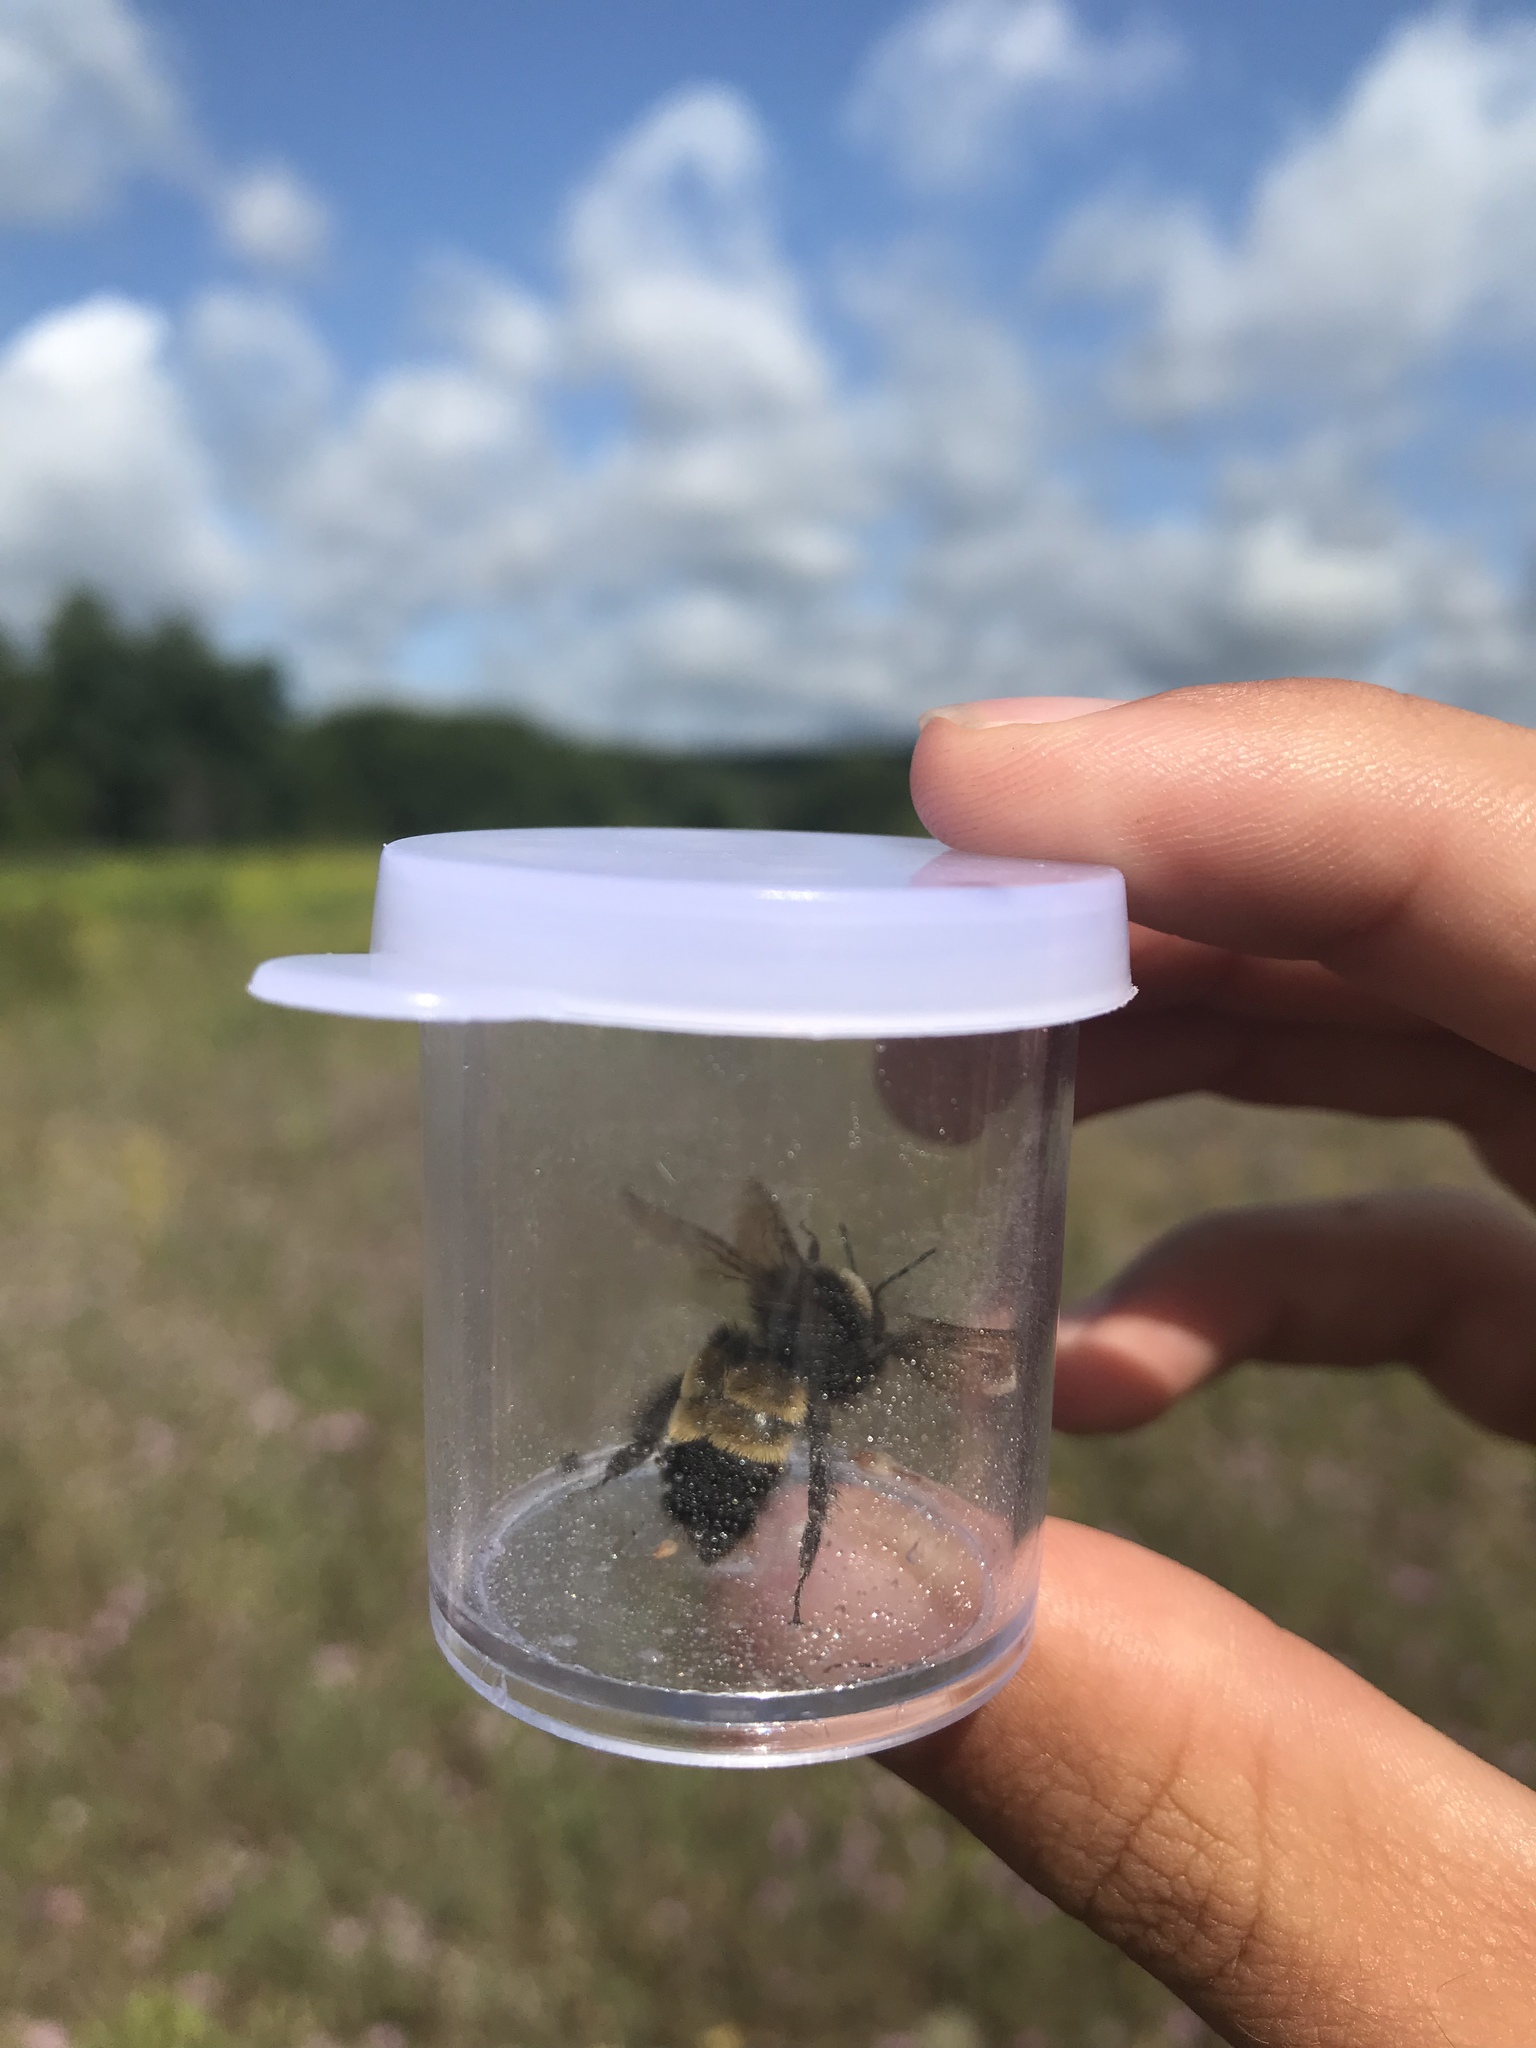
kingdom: Animalia
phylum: Arthropoda
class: Insecta
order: Hymenoptera
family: Apidae
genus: Bombus
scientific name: Bombus terricola
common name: Yellow-banded bumble bee
